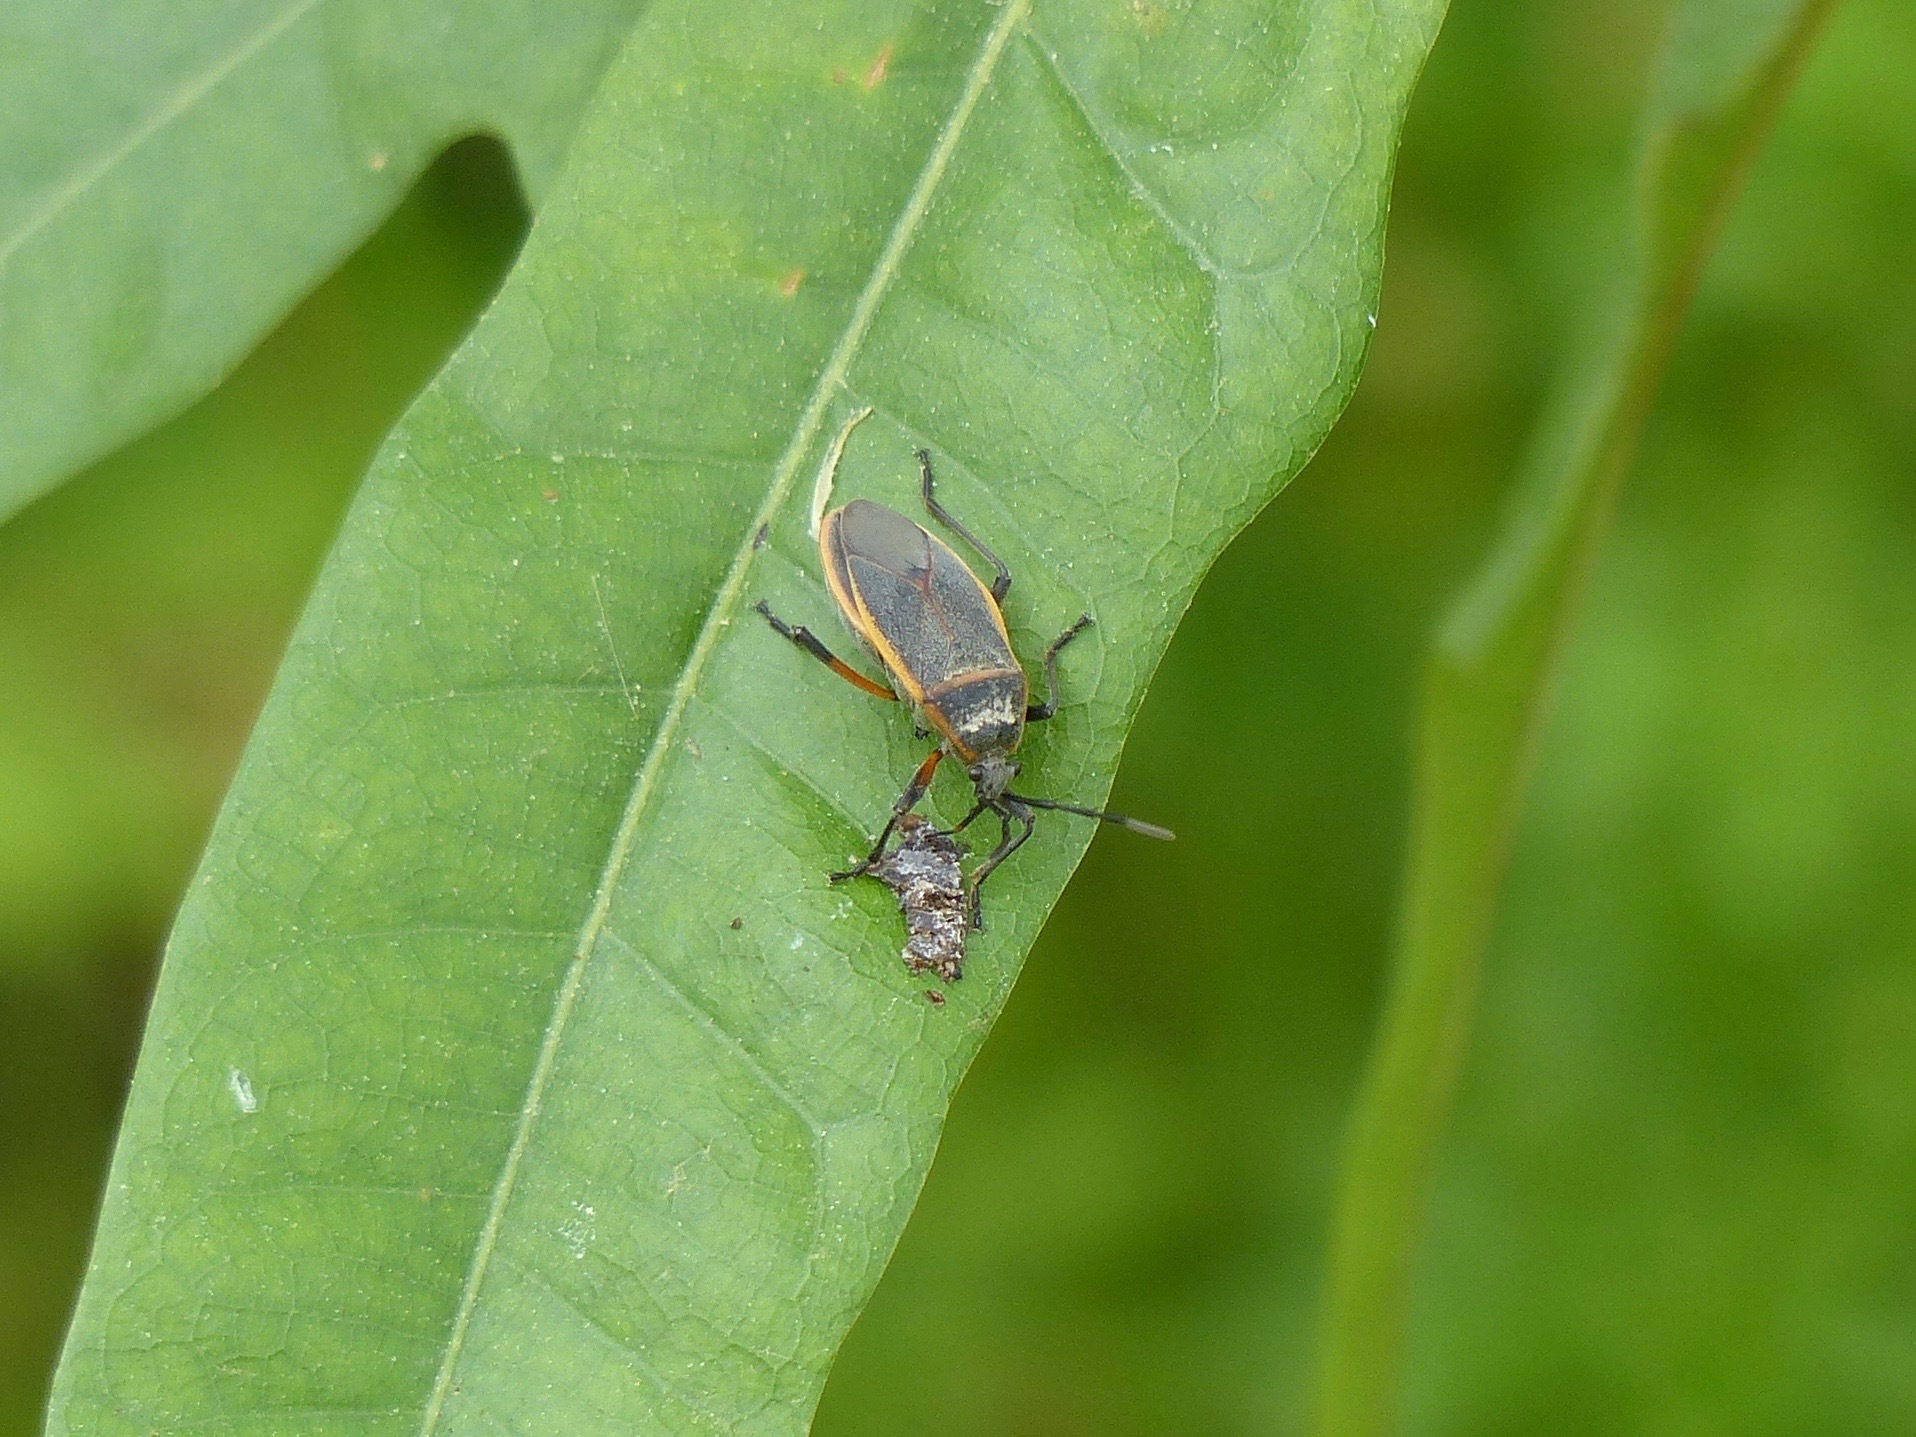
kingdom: Animalia
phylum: Arthropoda
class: Insecta
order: Hemiptera
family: Largidae
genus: Largus
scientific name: Largus succinctus
